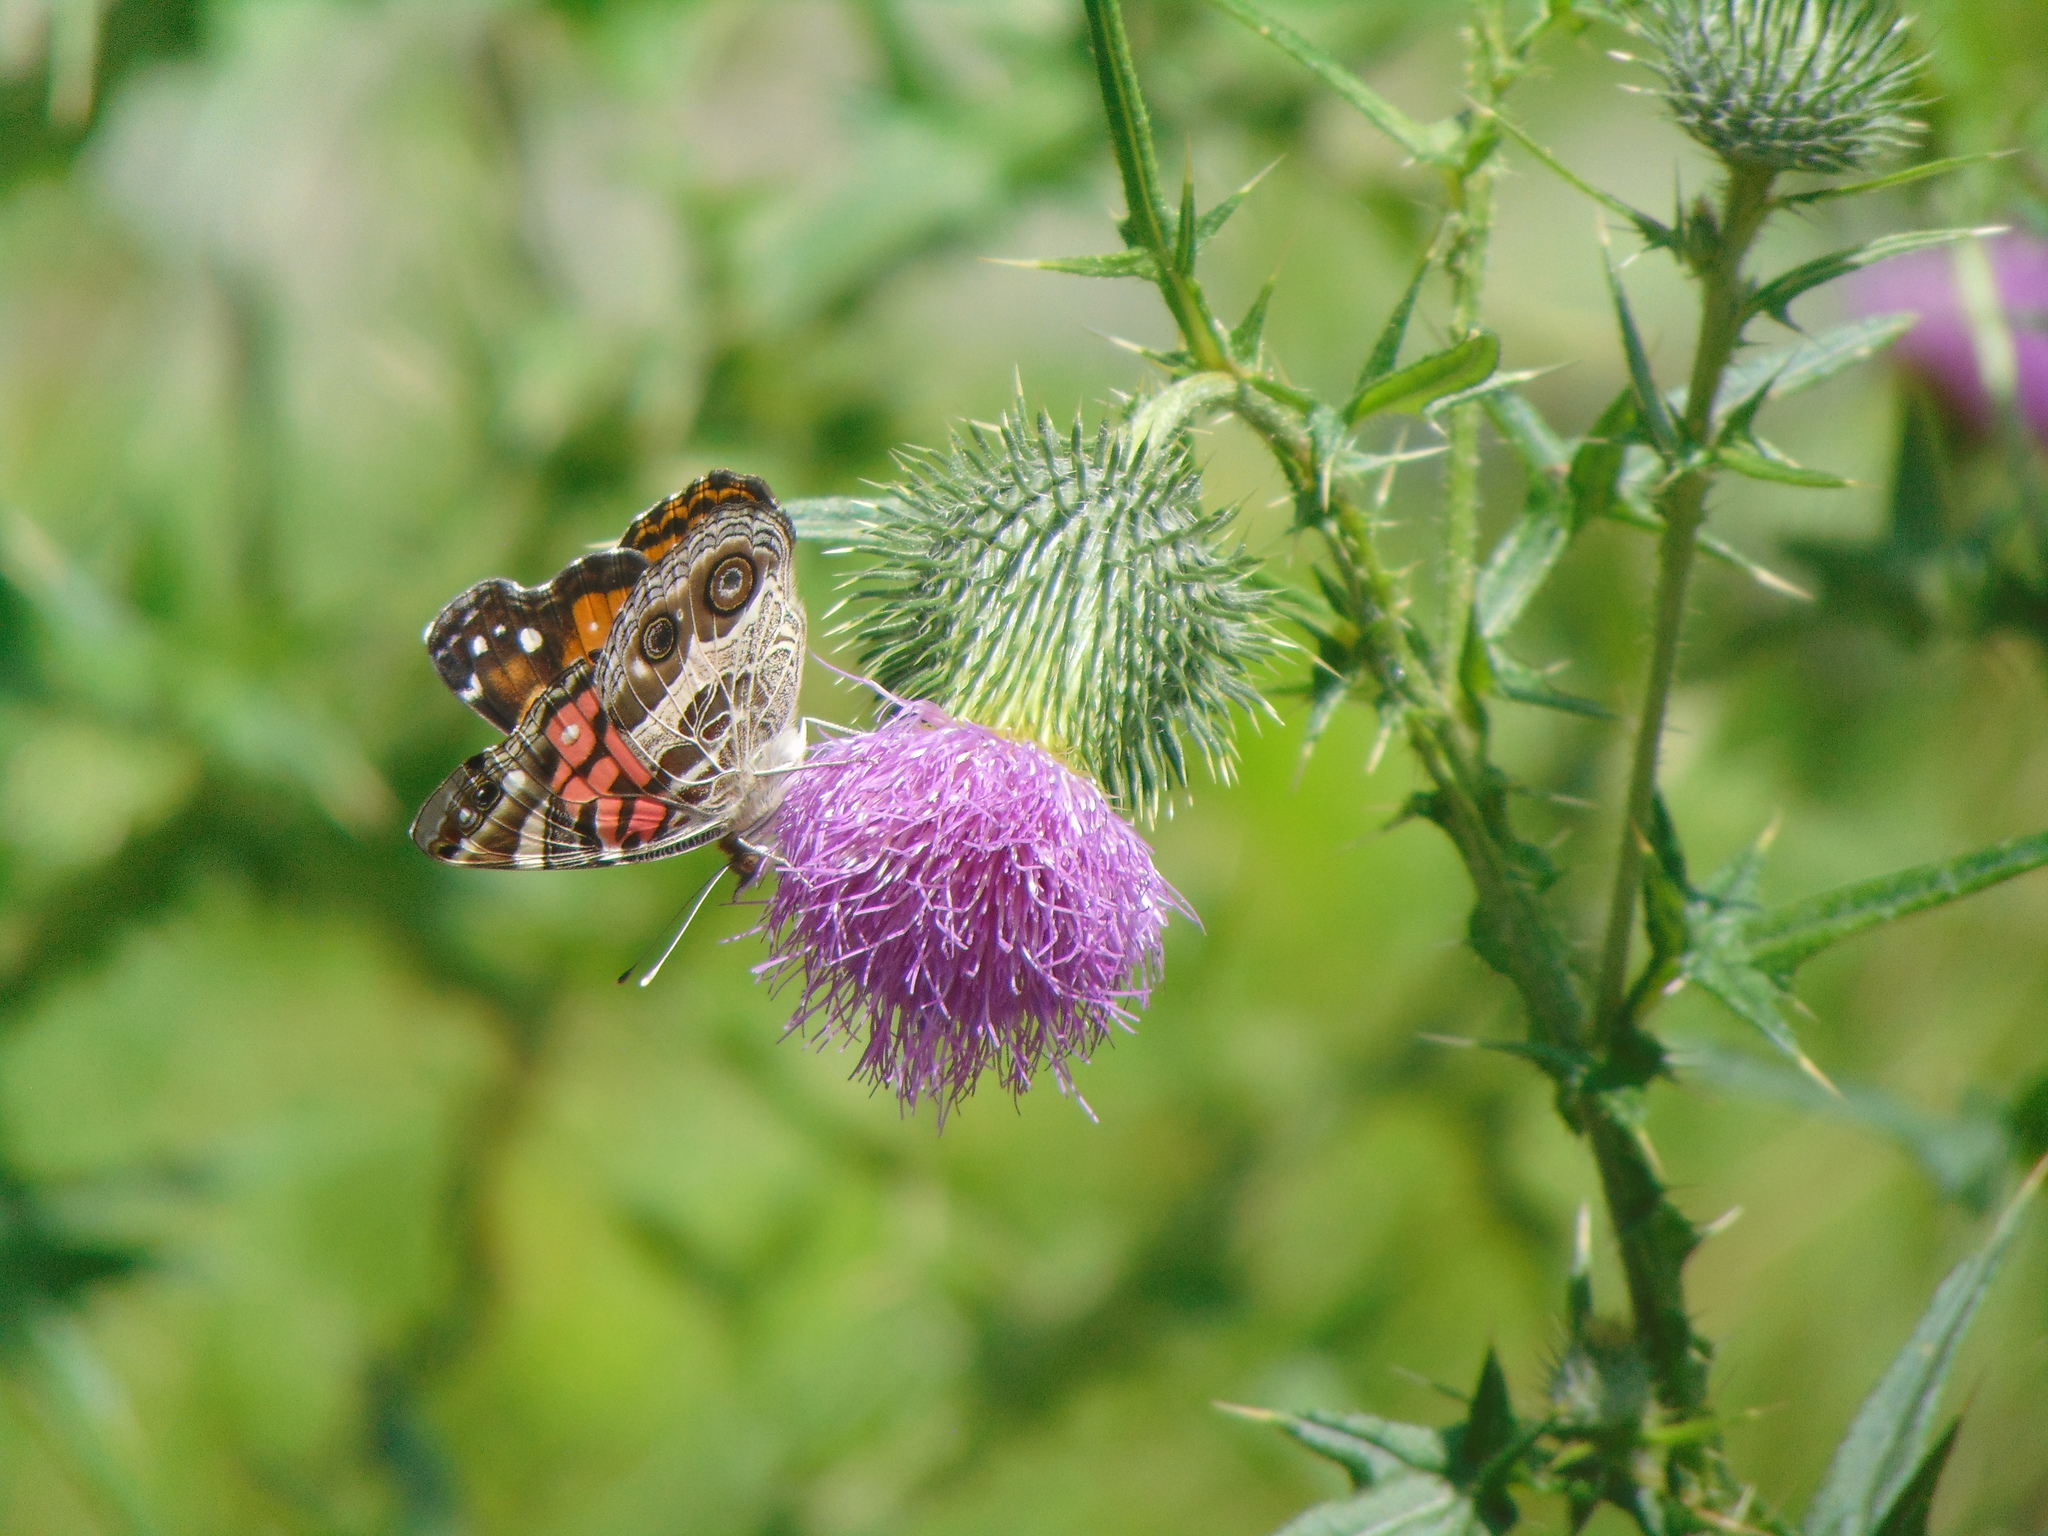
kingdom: Animalia
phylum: Arthropoda
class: Insecta
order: Lepidoptera
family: Nymphalidae
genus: Vanessa
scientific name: Vanessa virginiensis
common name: American lady
